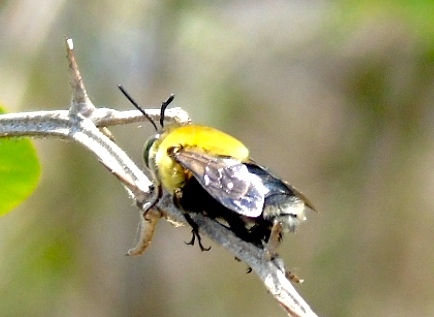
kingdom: Animalia
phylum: Arthropoda
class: Insecta
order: Hymenoptera
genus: Heterocentris
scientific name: Heterocentris
